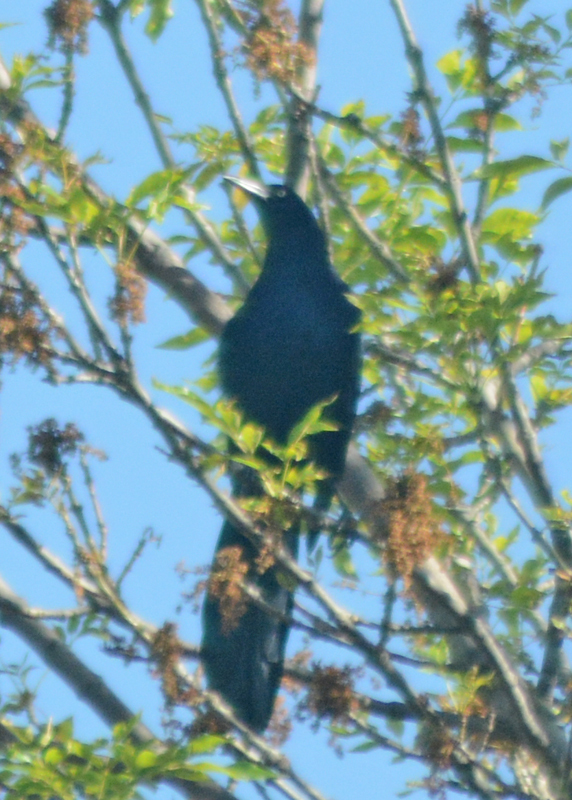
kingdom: Animalia
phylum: Chordata
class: Aves
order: Passeriformes
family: Icteridae
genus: Quiscalus
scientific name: Quiscalus mexicanus
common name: Great-tailed grackle
